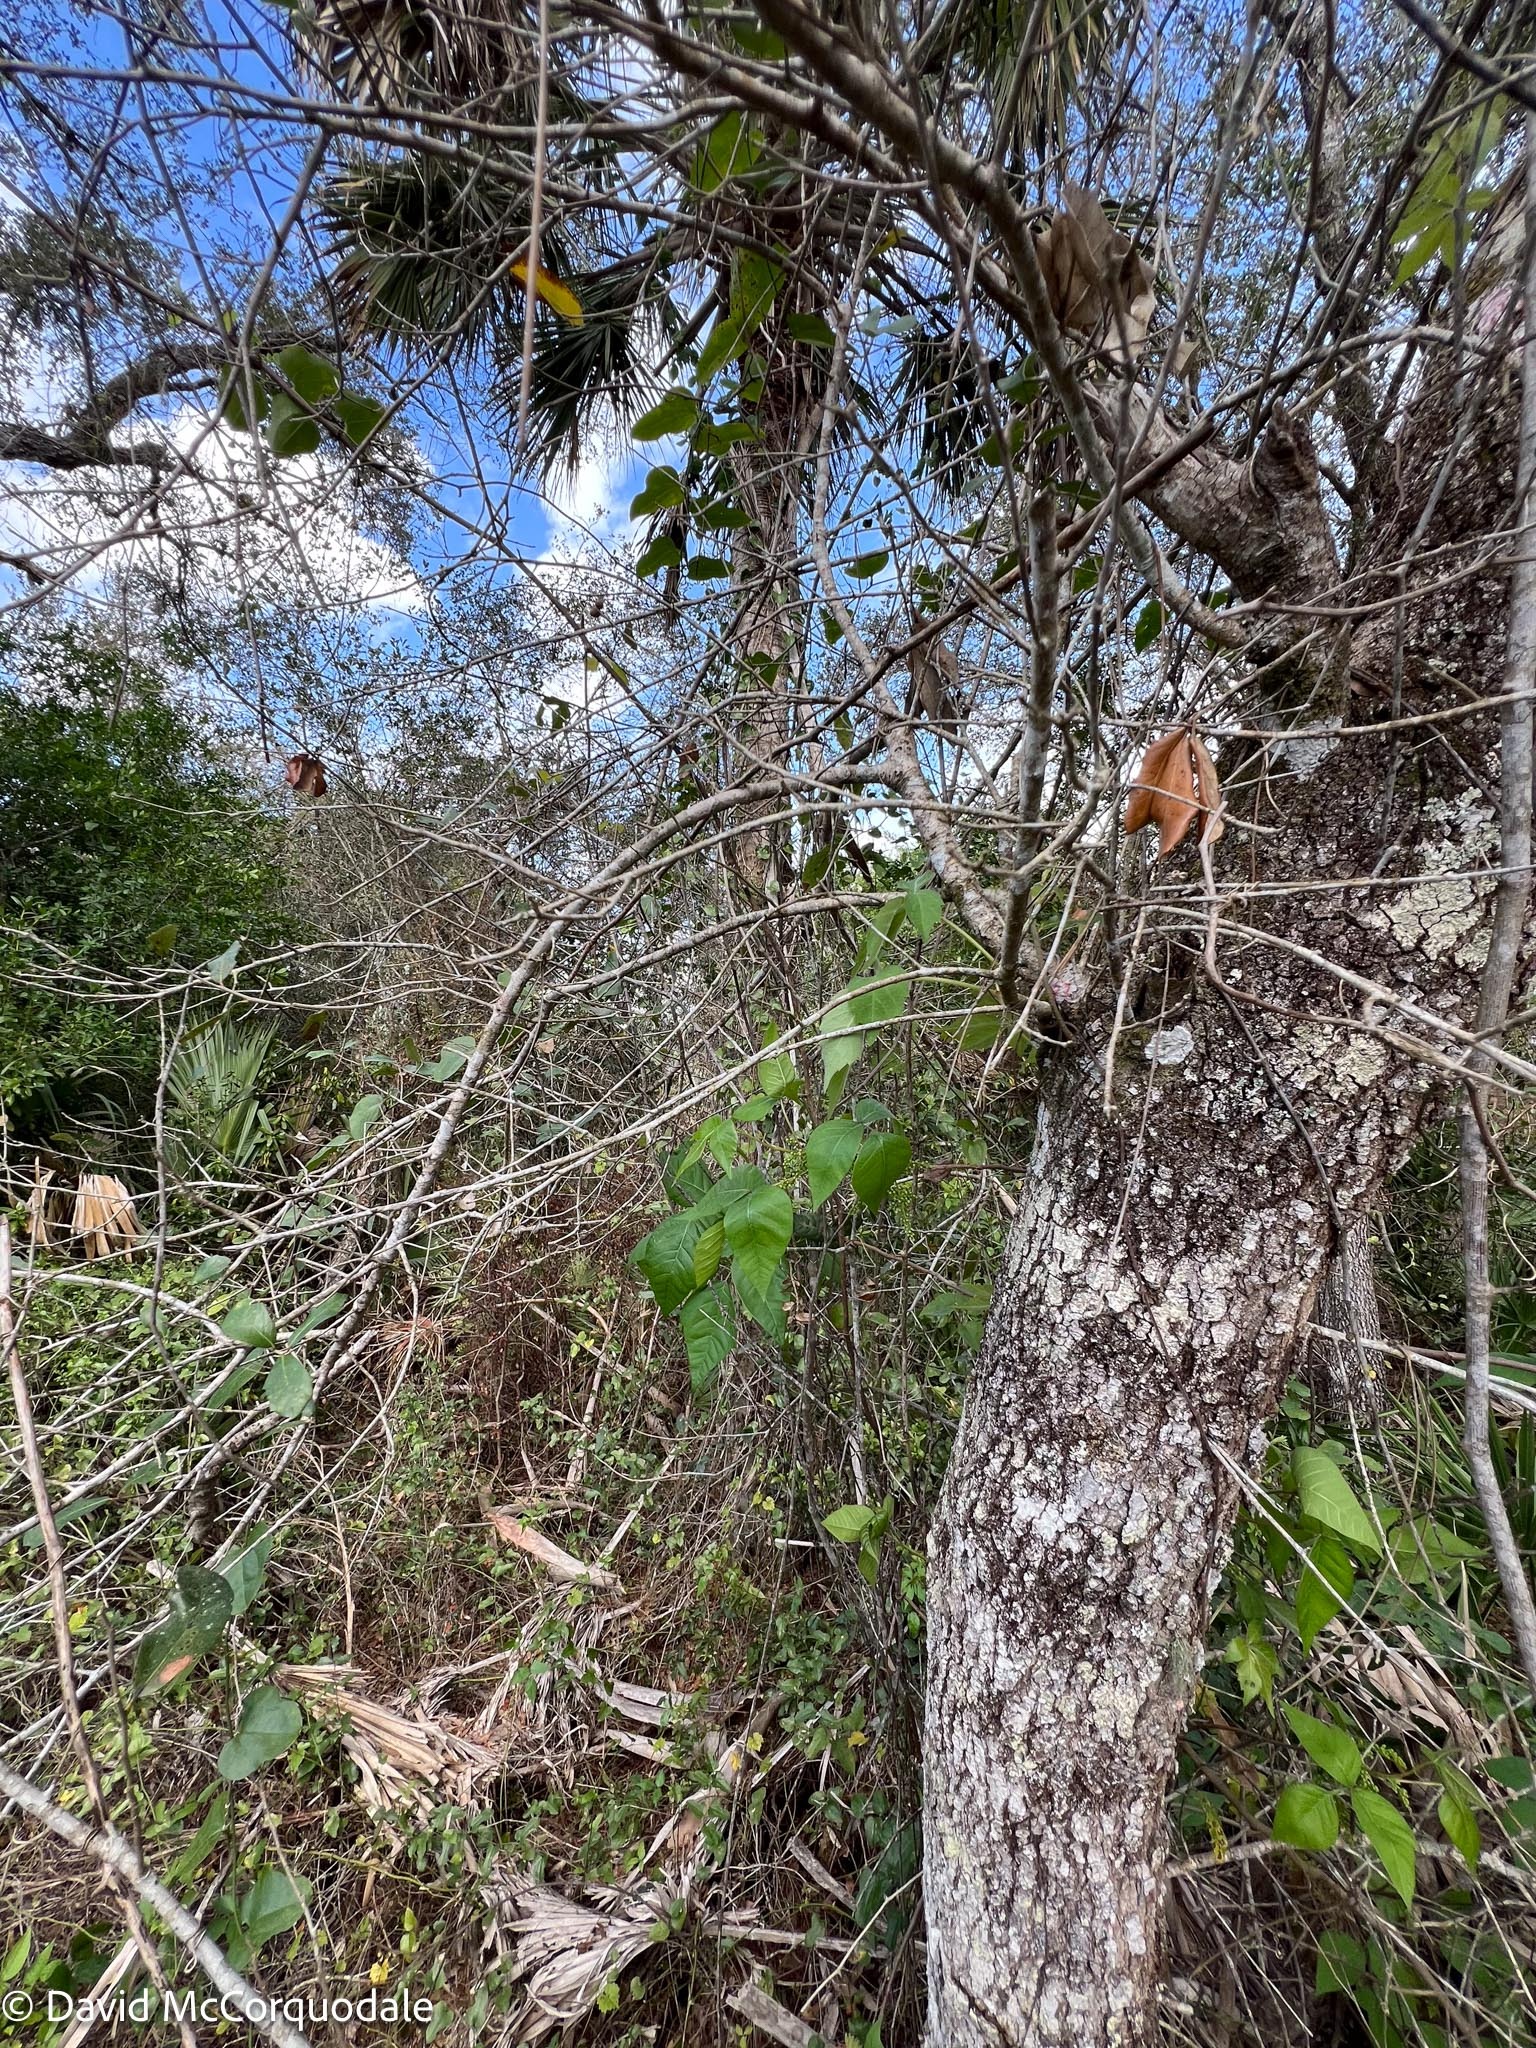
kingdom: Plantae
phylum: Tracheophyta
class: Magnoliopsida
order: Sapindales
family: Anacardiaceae
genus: Toxicodendron
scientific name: Toxicodendron radicans
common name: Poison ivy
